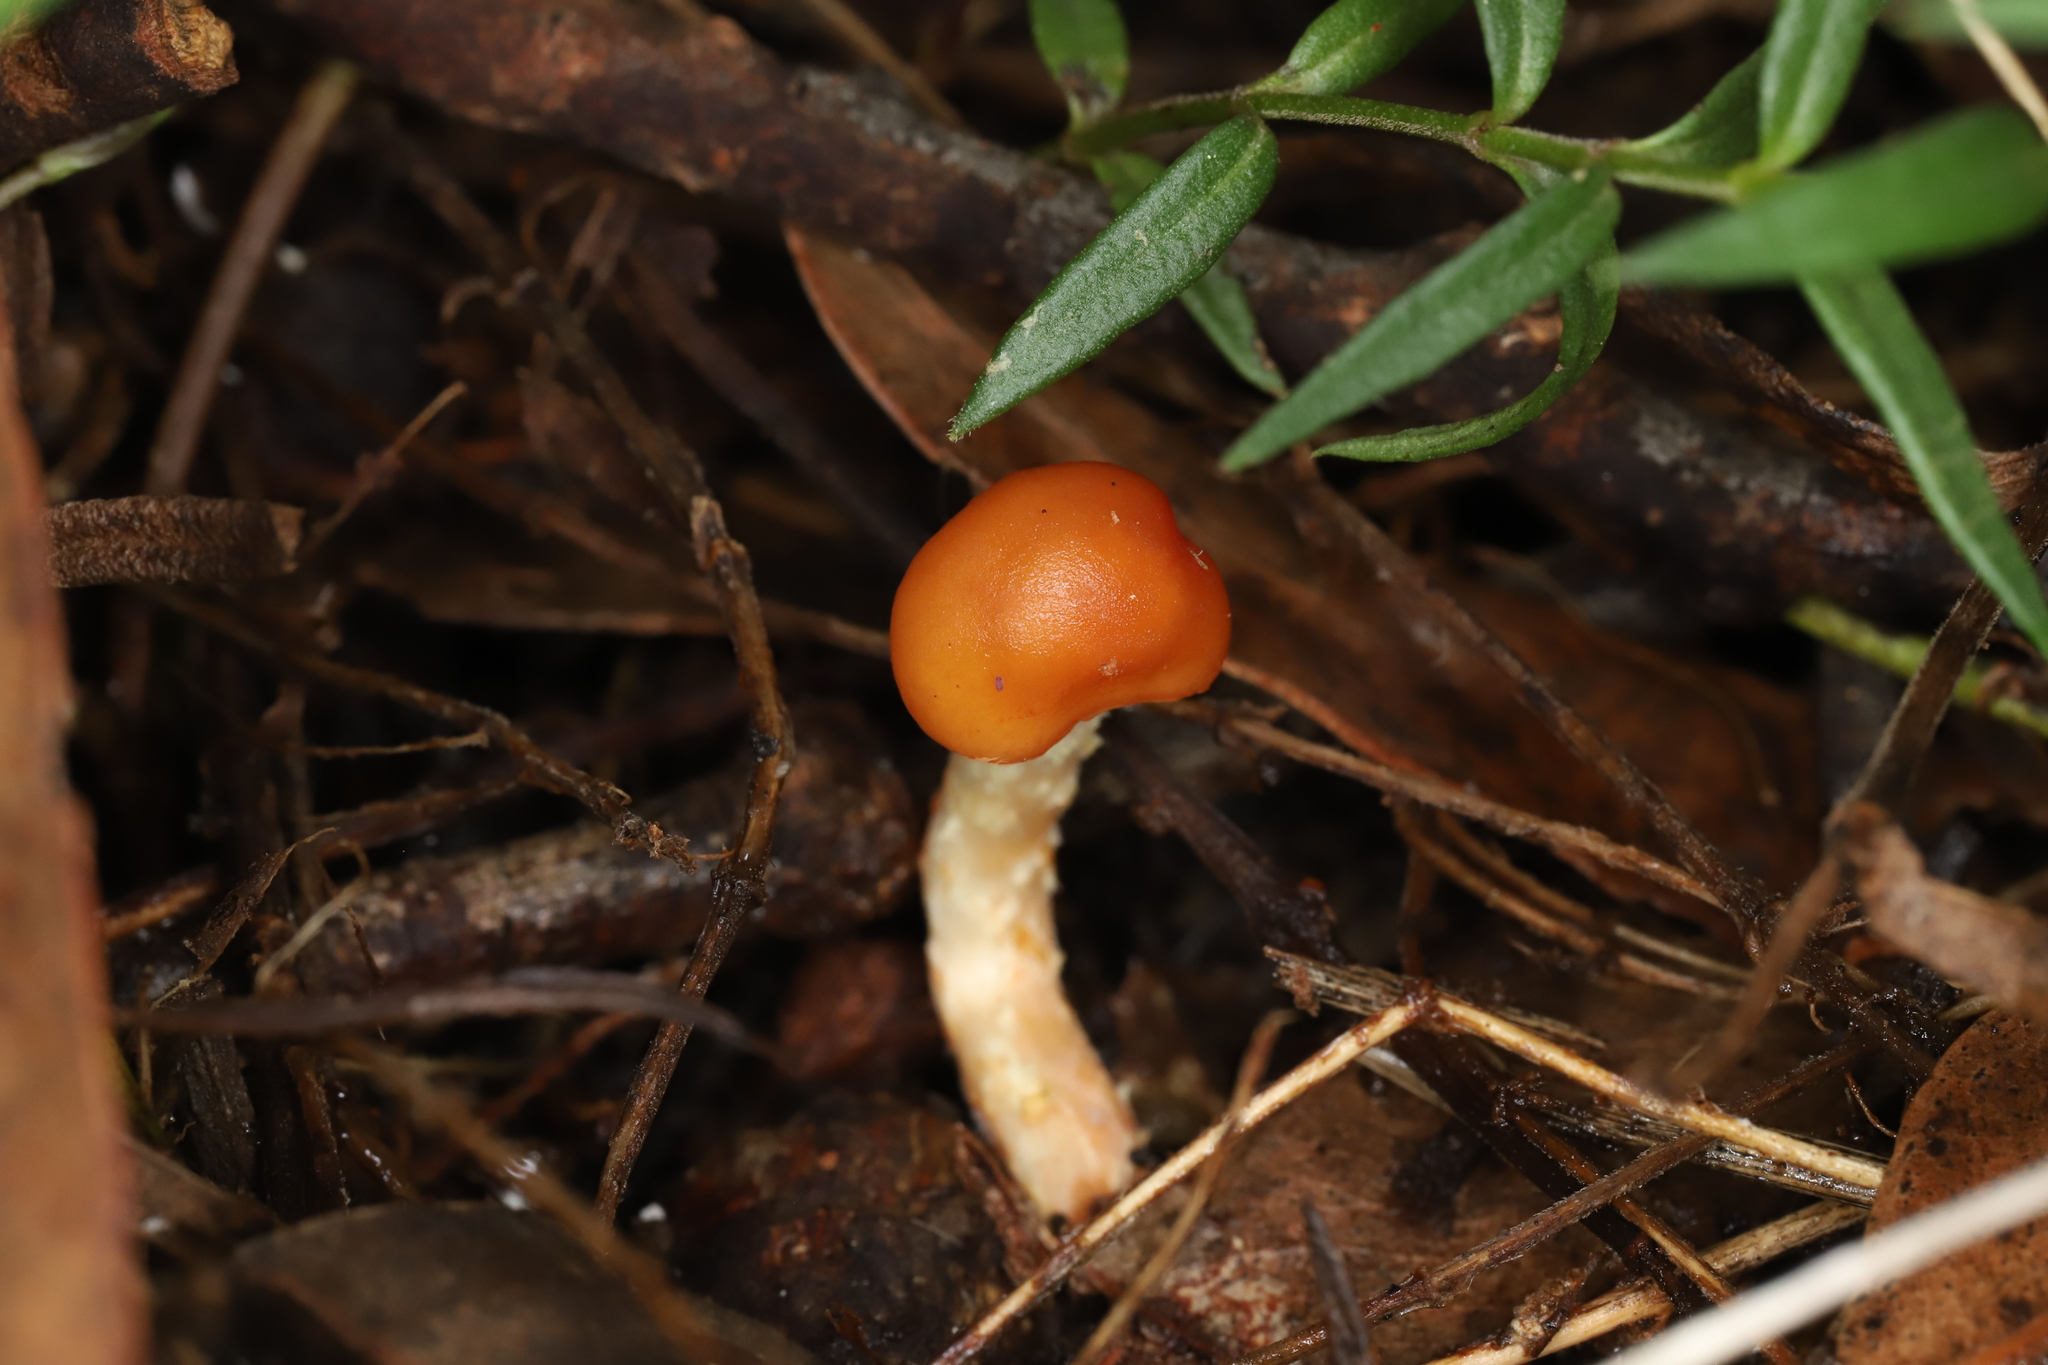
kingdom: Fungi
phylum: Basidiomycota
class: Agaricomycetes
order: Agaricales
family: Strophariaceae
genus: Leratiomyces
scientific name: Leratiomyces ceres
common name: Redlead roundhead
